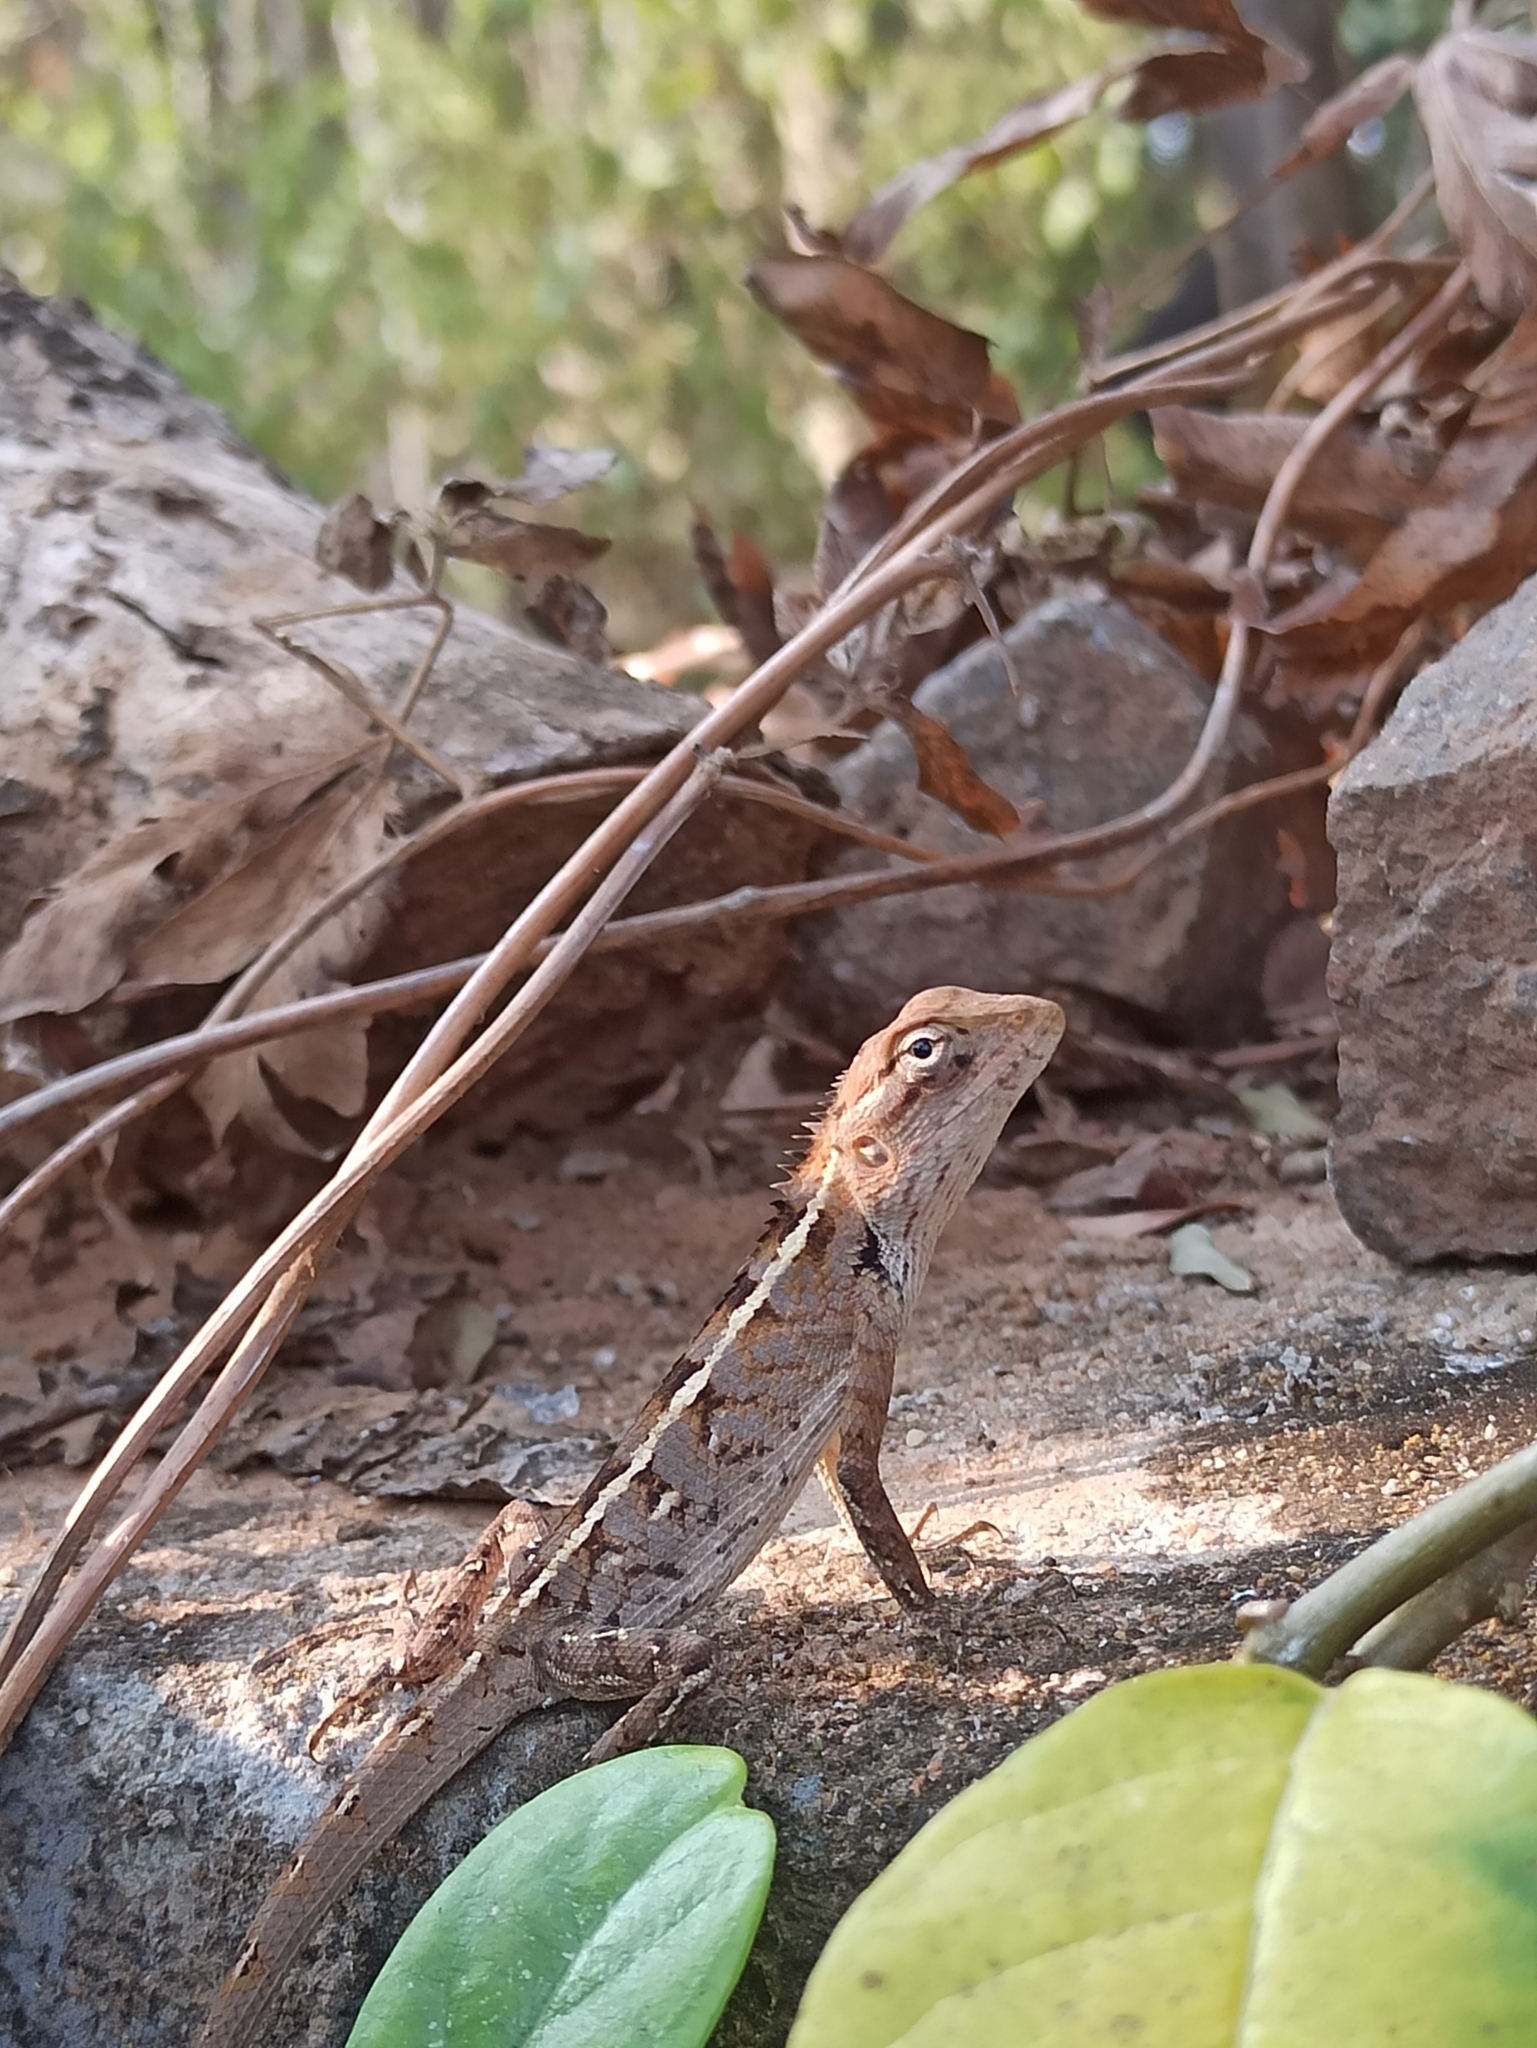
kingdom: Animalia
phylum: Chordata
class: Squamata
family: Agamidae
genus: Calotes
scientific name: Calotes versicolor
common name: Oriental garden lizard
